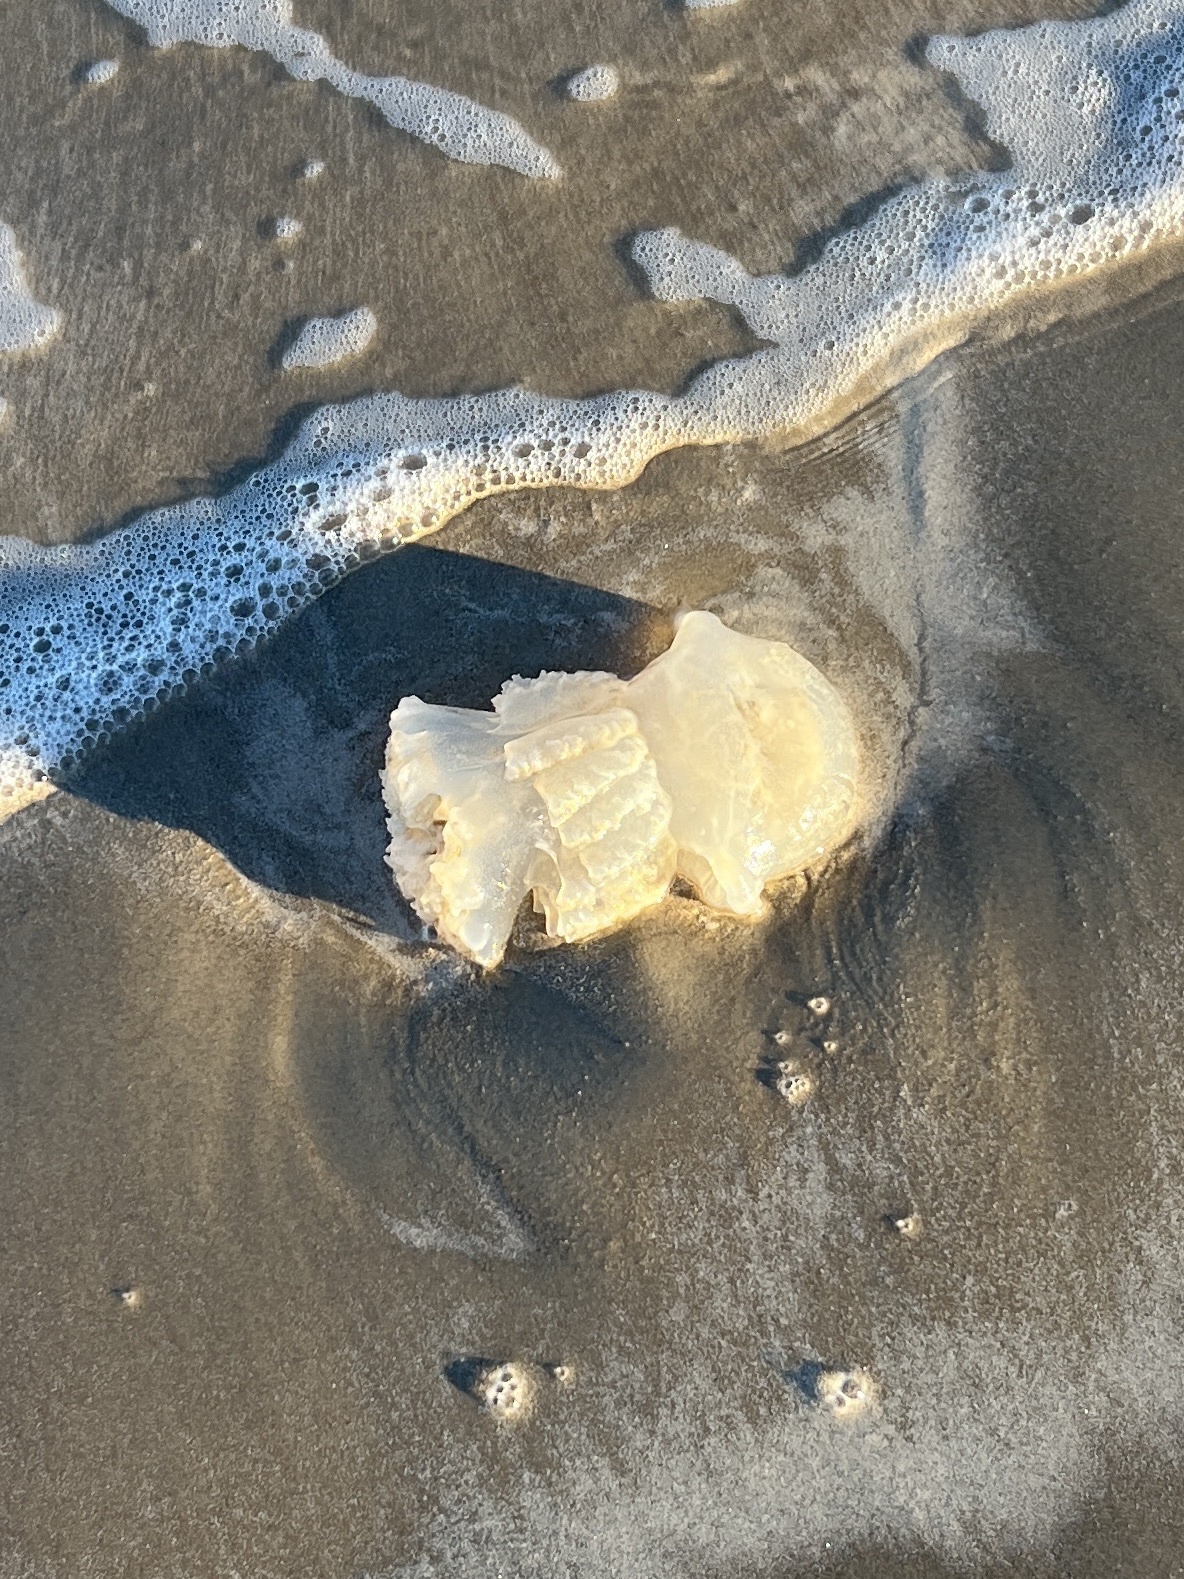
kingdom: Animalia
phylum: Cnidaria
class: Scyphozoa
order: Rhizostomeae
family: Stomolophidae
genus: Stomolophus
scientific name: Stomolophus meleagris
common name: Cabbagehead
